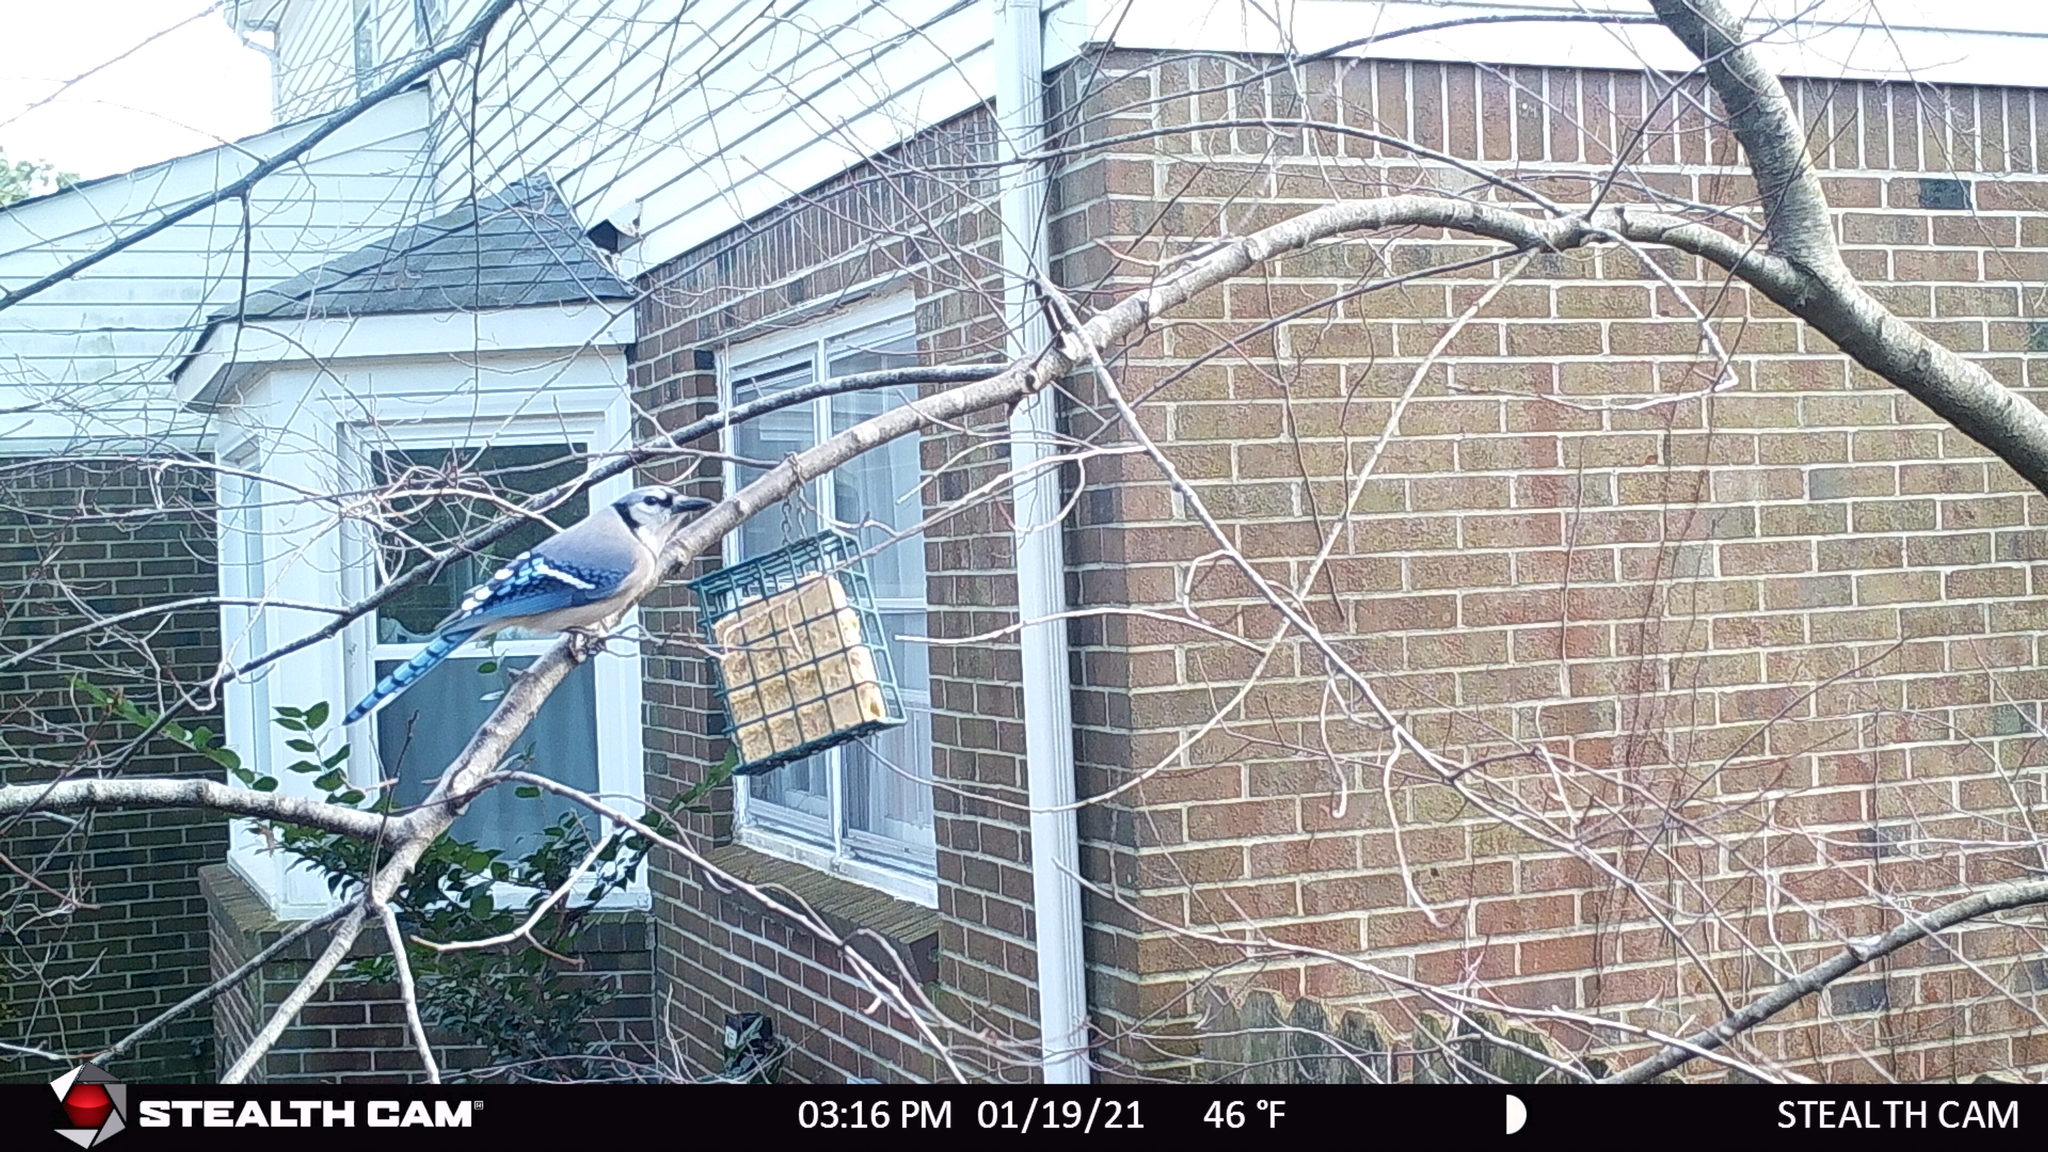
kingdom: Animalia
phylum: Chordata
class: Aves
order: Passeriformes
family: Corvidae
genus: Cyanocitta
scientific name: Cyanocitta cristata
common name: Blue jay
